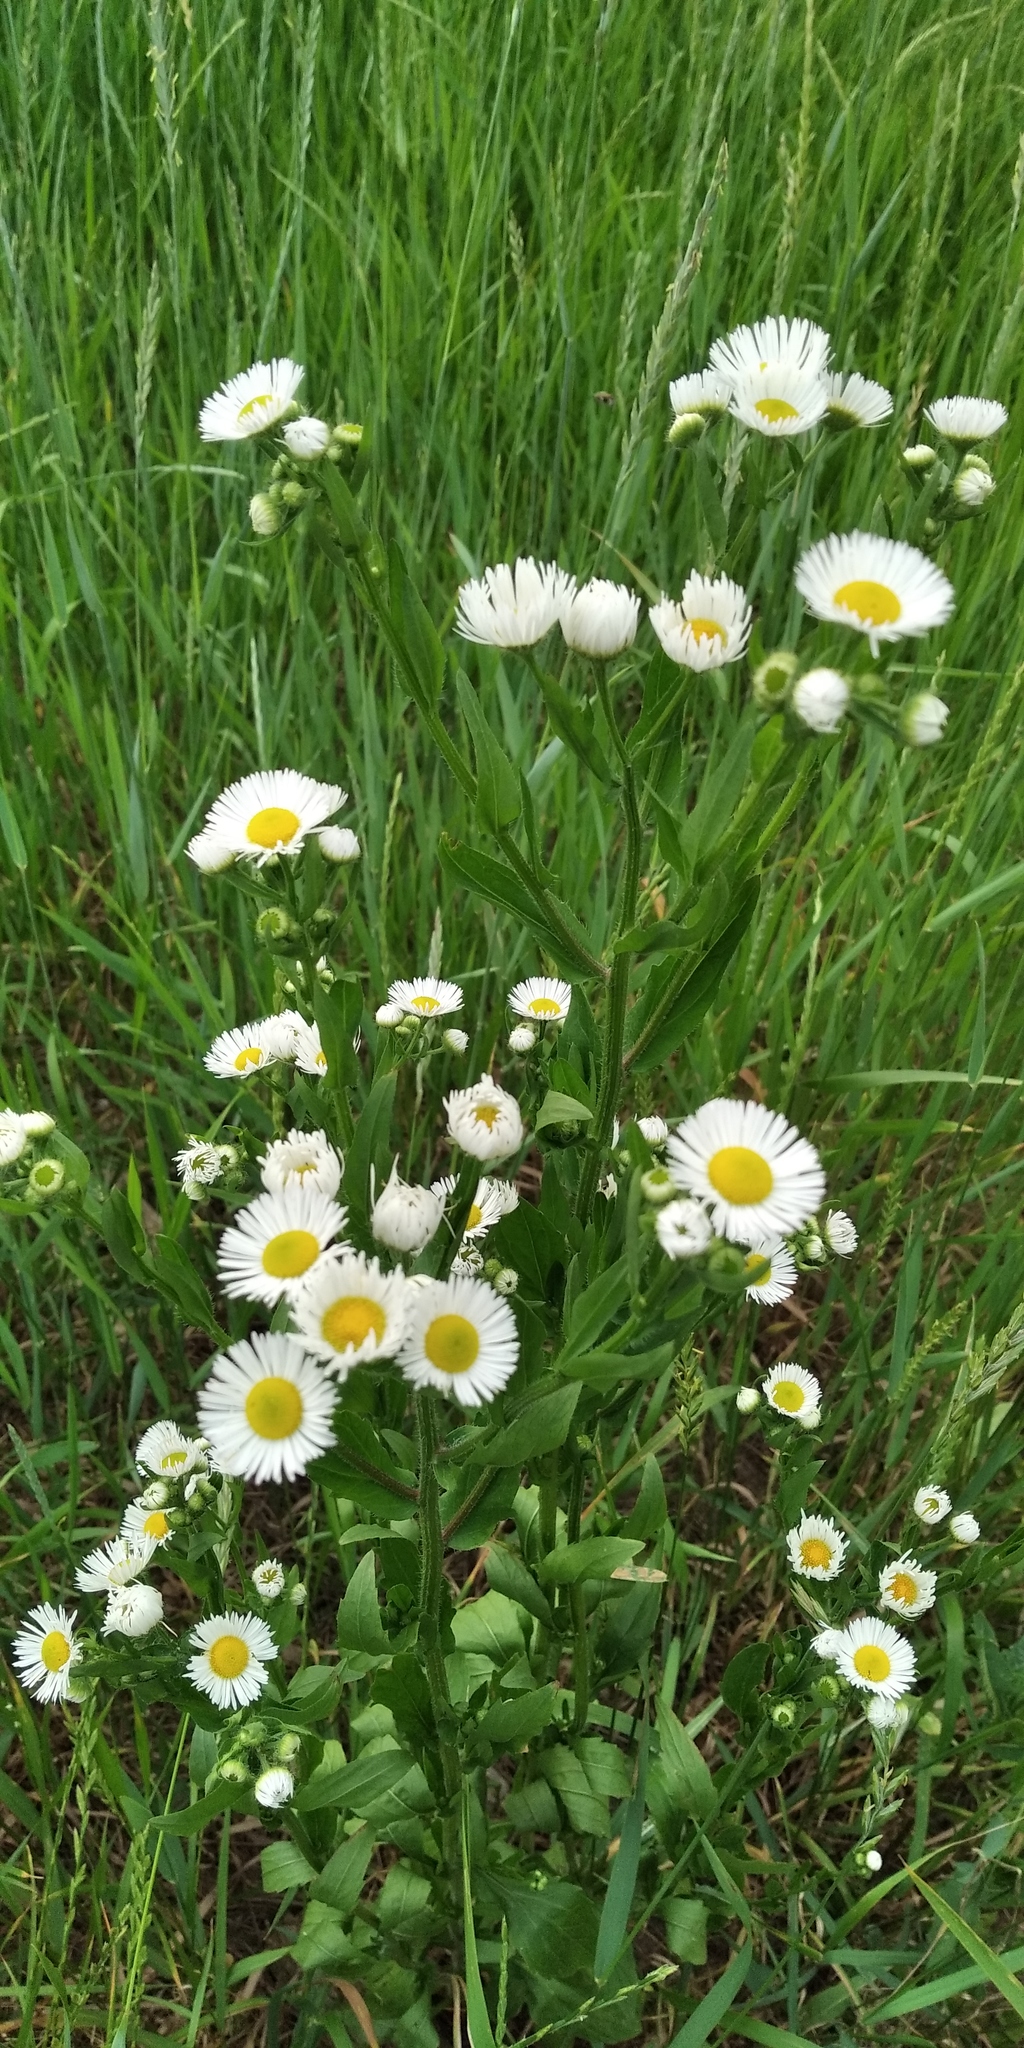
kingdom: Plantae
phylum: Tracheophyta
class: Magnoliopsida
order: Asterales
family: Asteraceae
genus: Erigeron
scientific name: Erigeron annuus
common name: Tall fleabane
